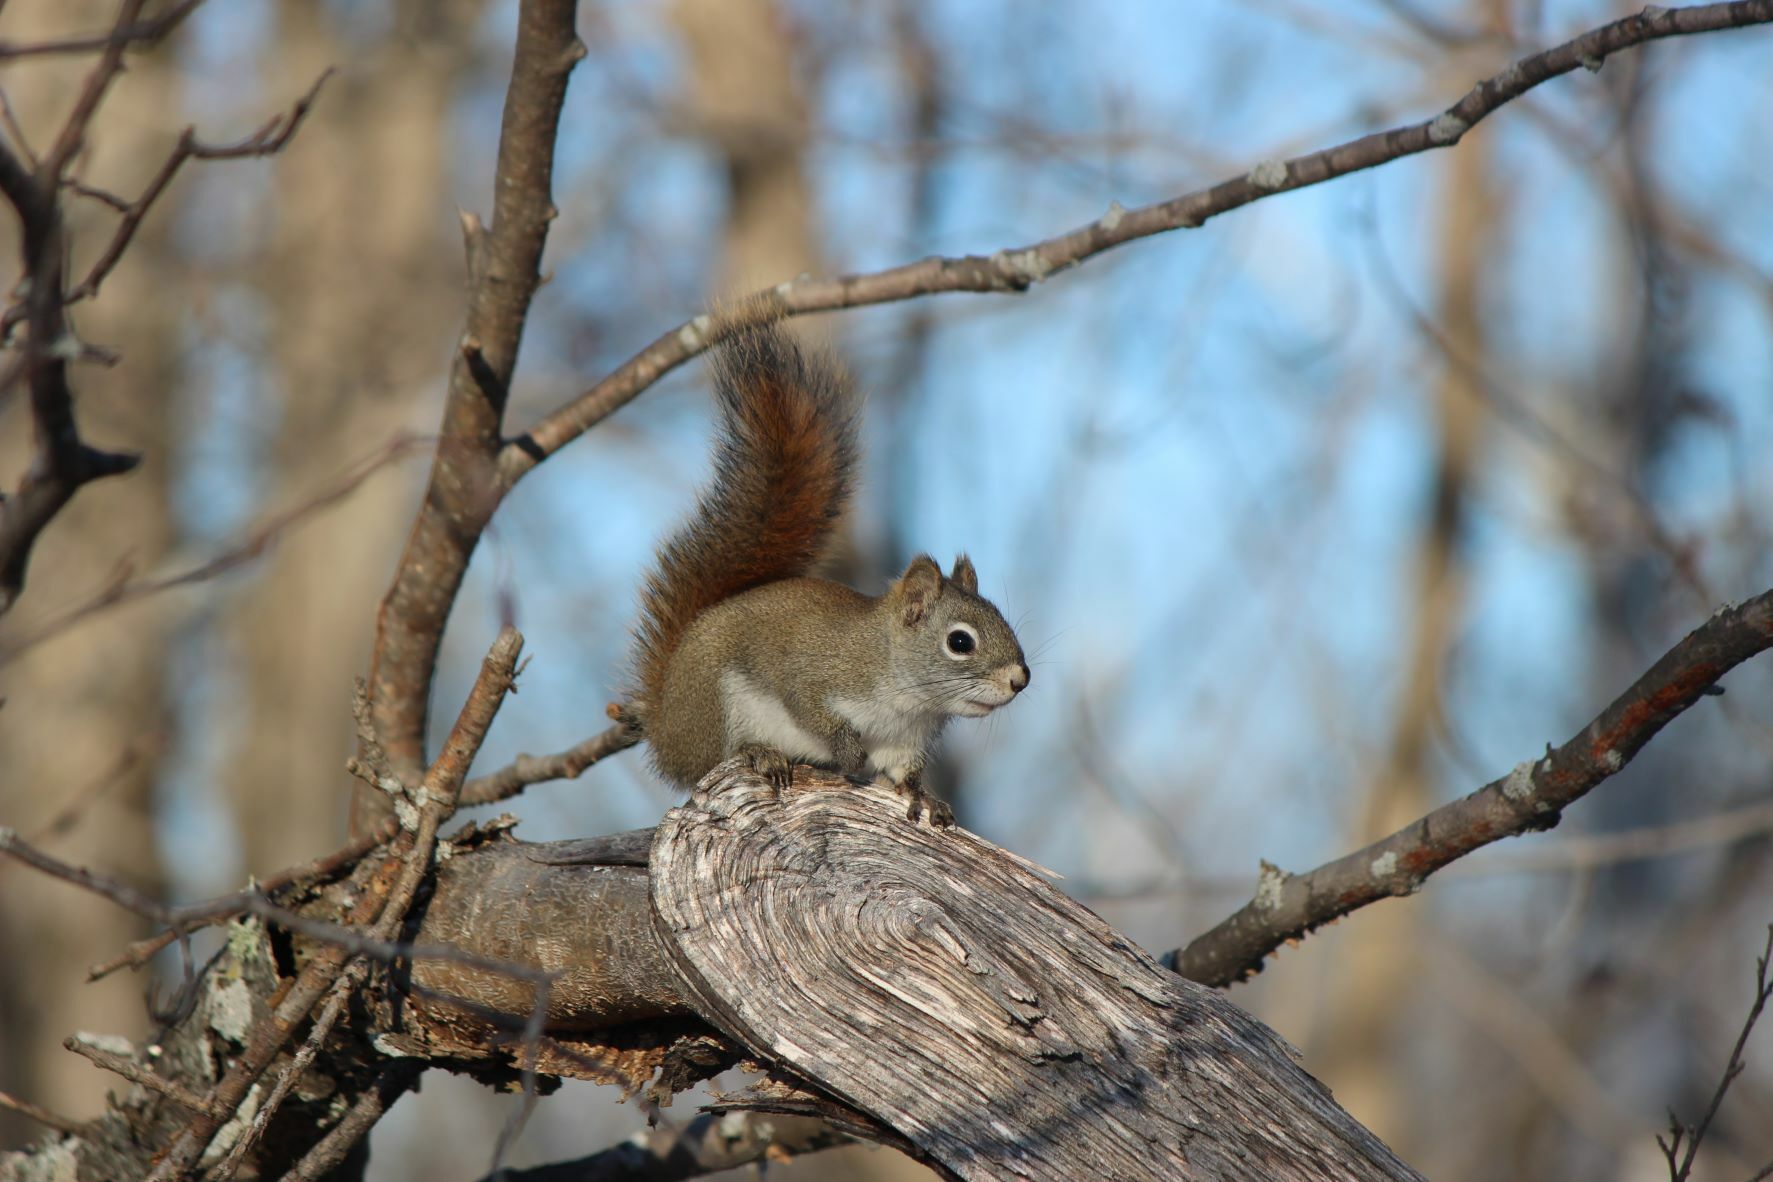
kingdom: Animalia
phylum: Chordata
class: Mammalia
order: Rodentia
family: Sciuridae
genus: Tamiasciurus
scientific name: Tamiasciurus hudsonicus
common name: Red squirrel
